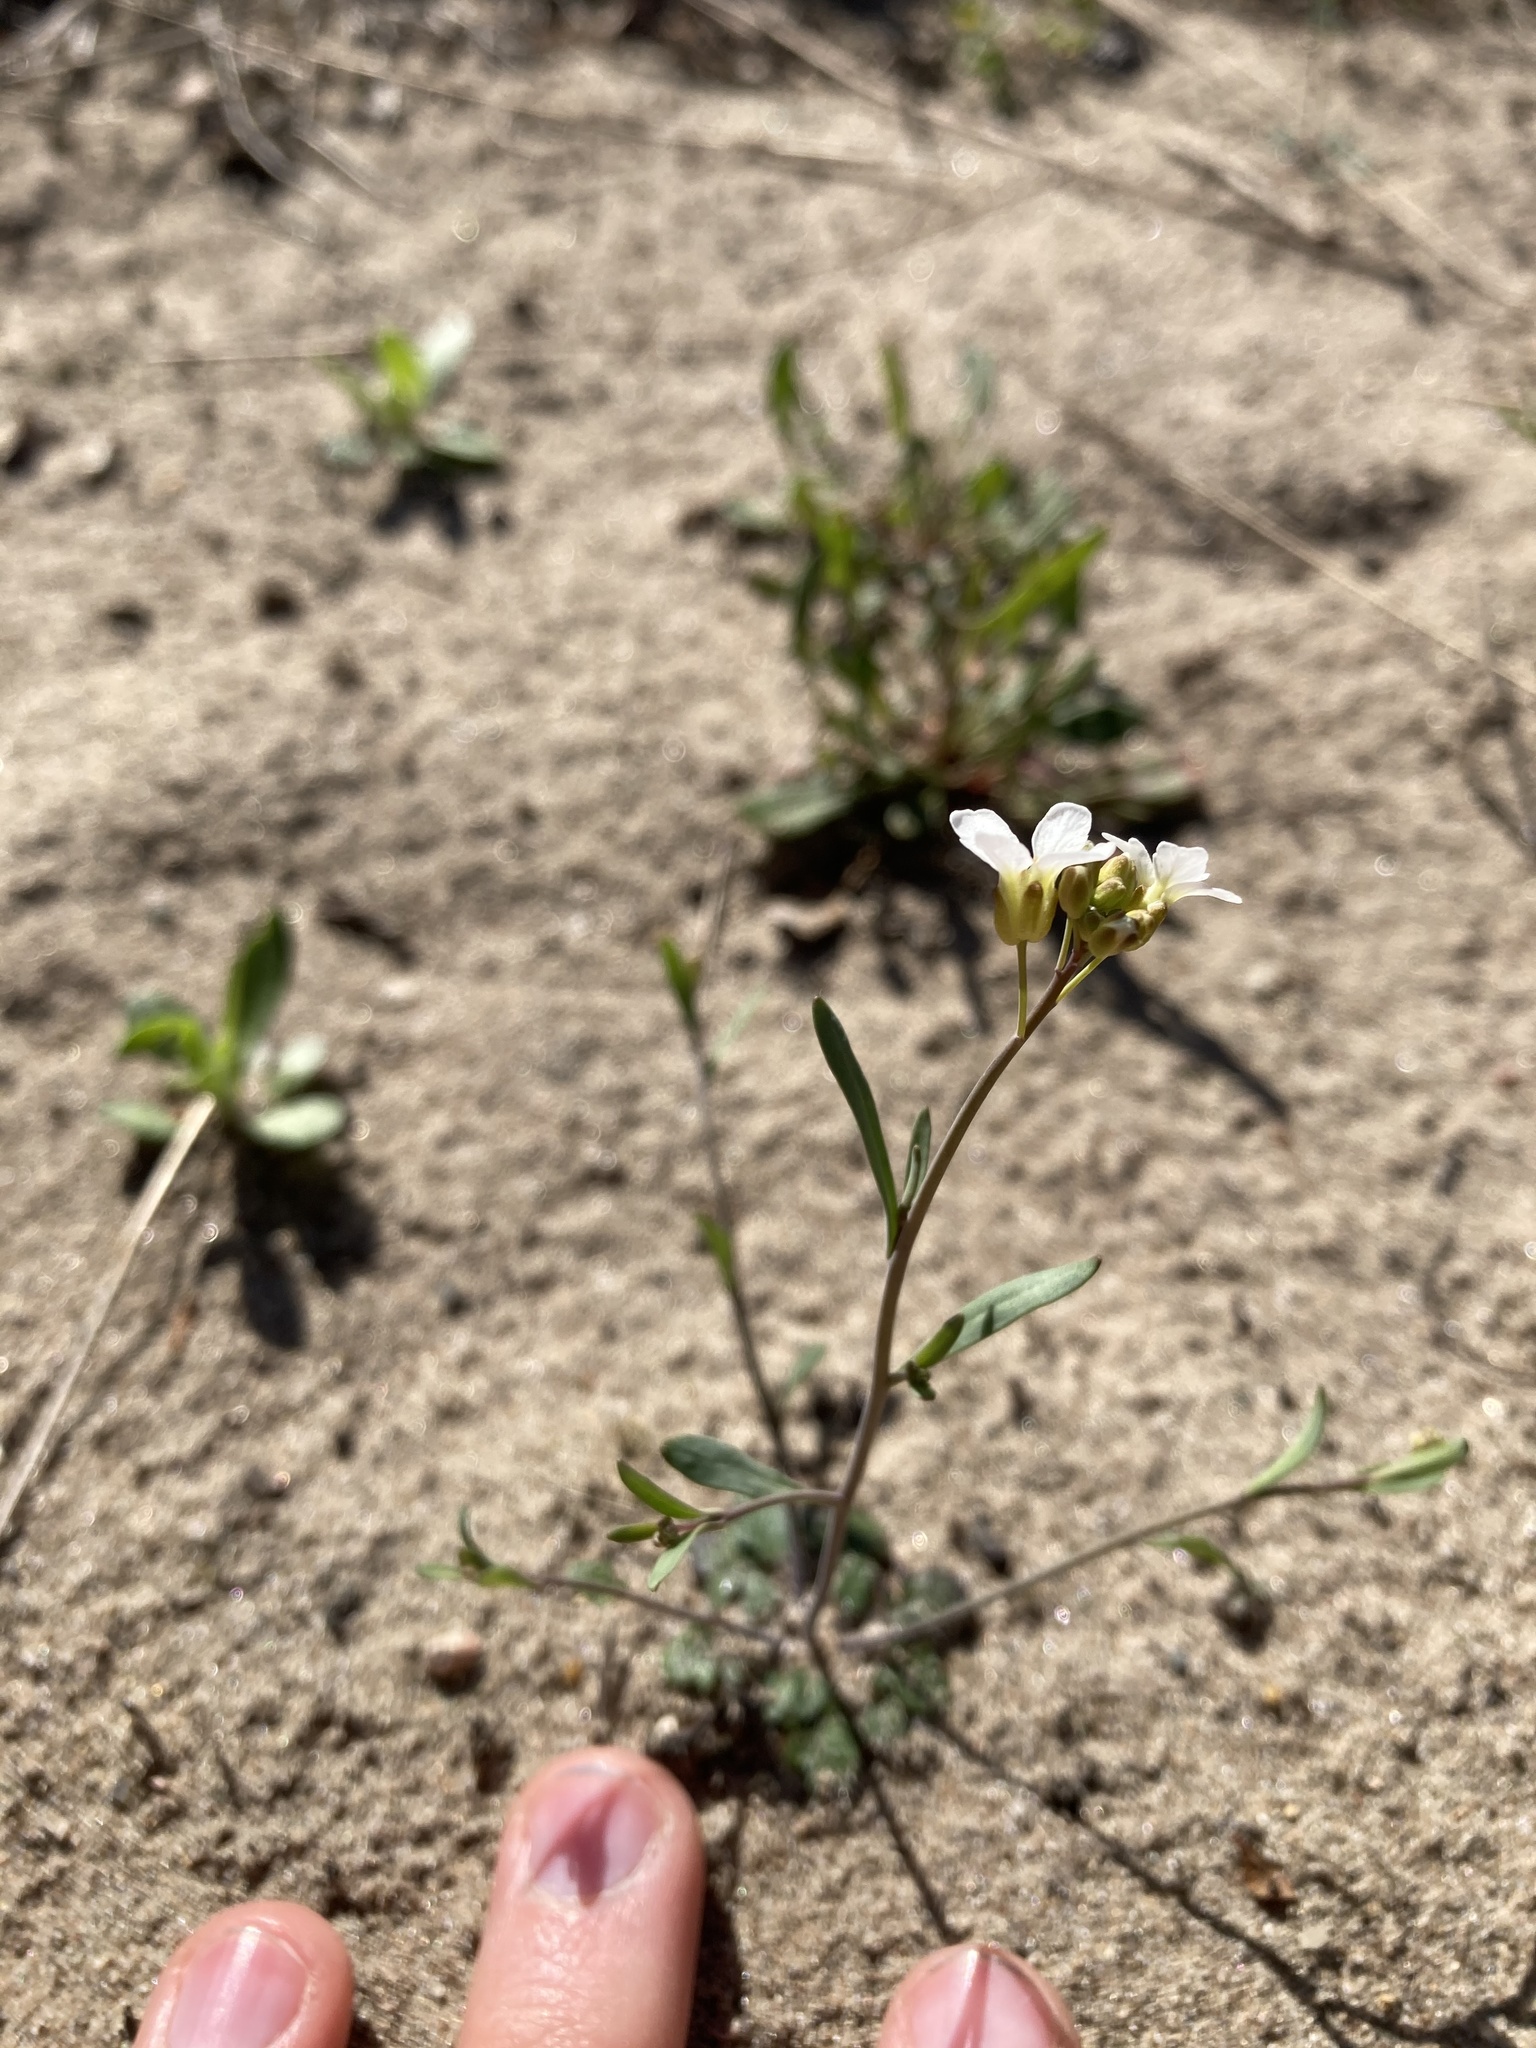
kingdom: Plantae
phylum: Tracheophyta
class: Magnoliopsida
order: Brassicales
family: Brassicaceae
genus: Arabidopsis
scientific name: Arabidopsis lyrata
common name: Lyrate rockcress
